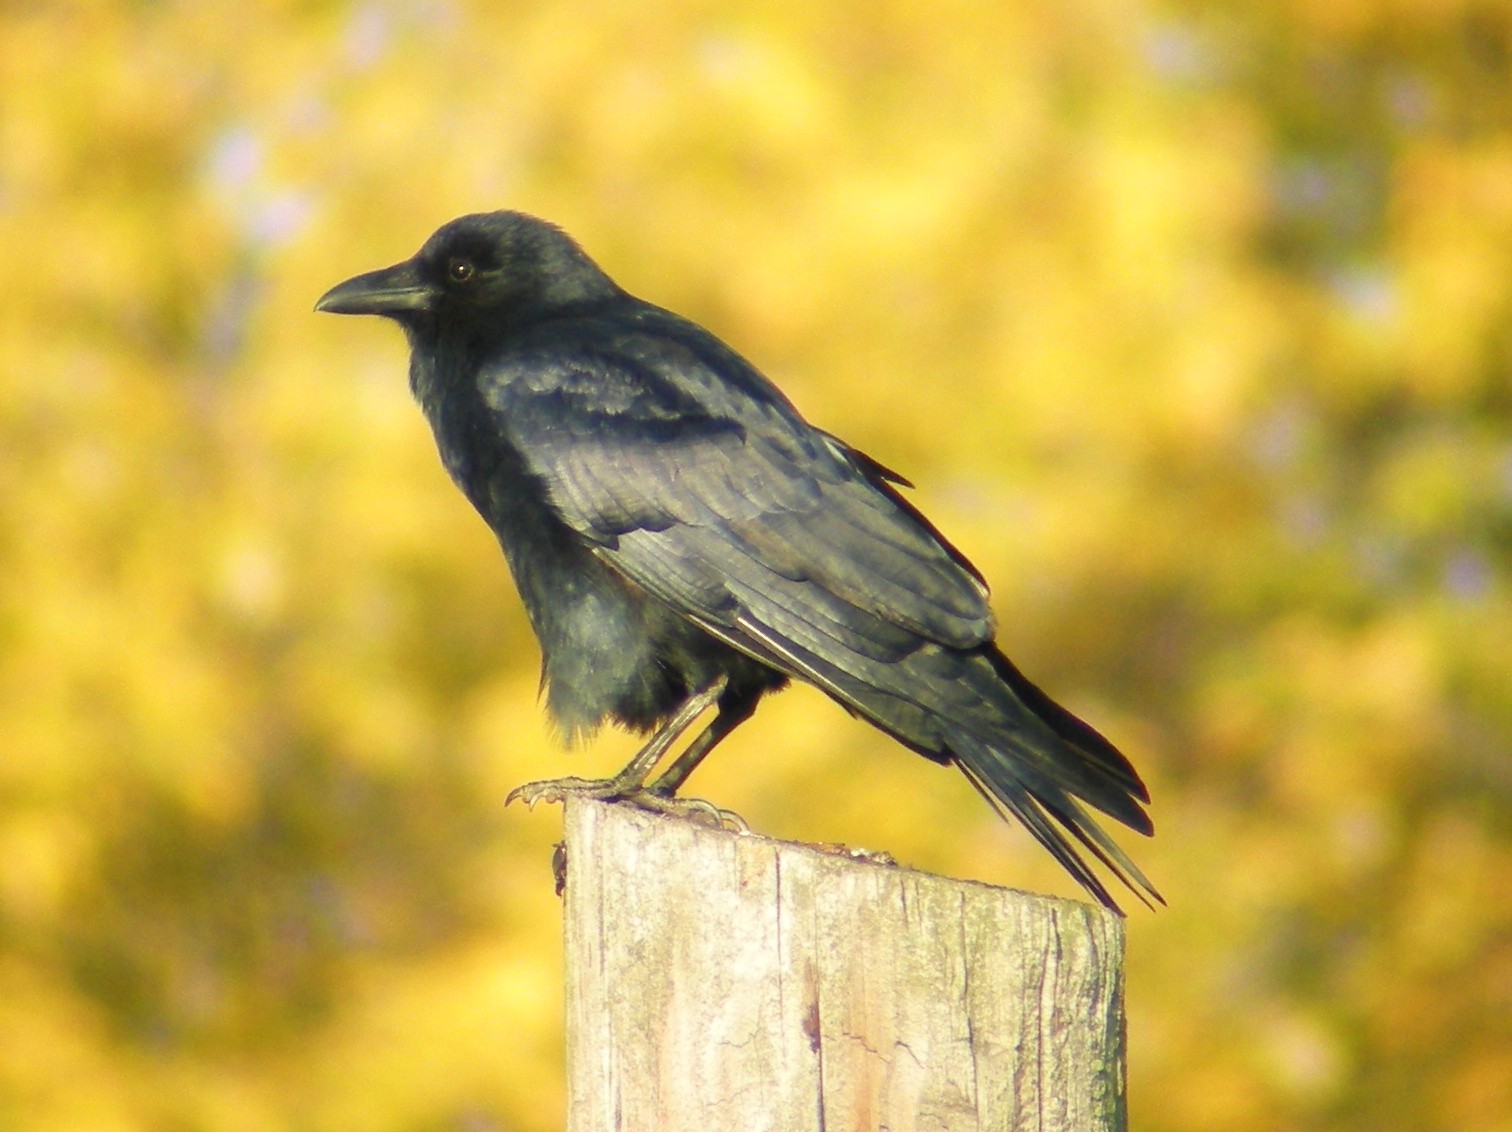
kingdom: Animalia
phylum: Chordata
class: Aves
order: Passeriformes
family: Corvidae
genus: Corvus
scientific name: Corvus ossifragus
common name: Fish crow
